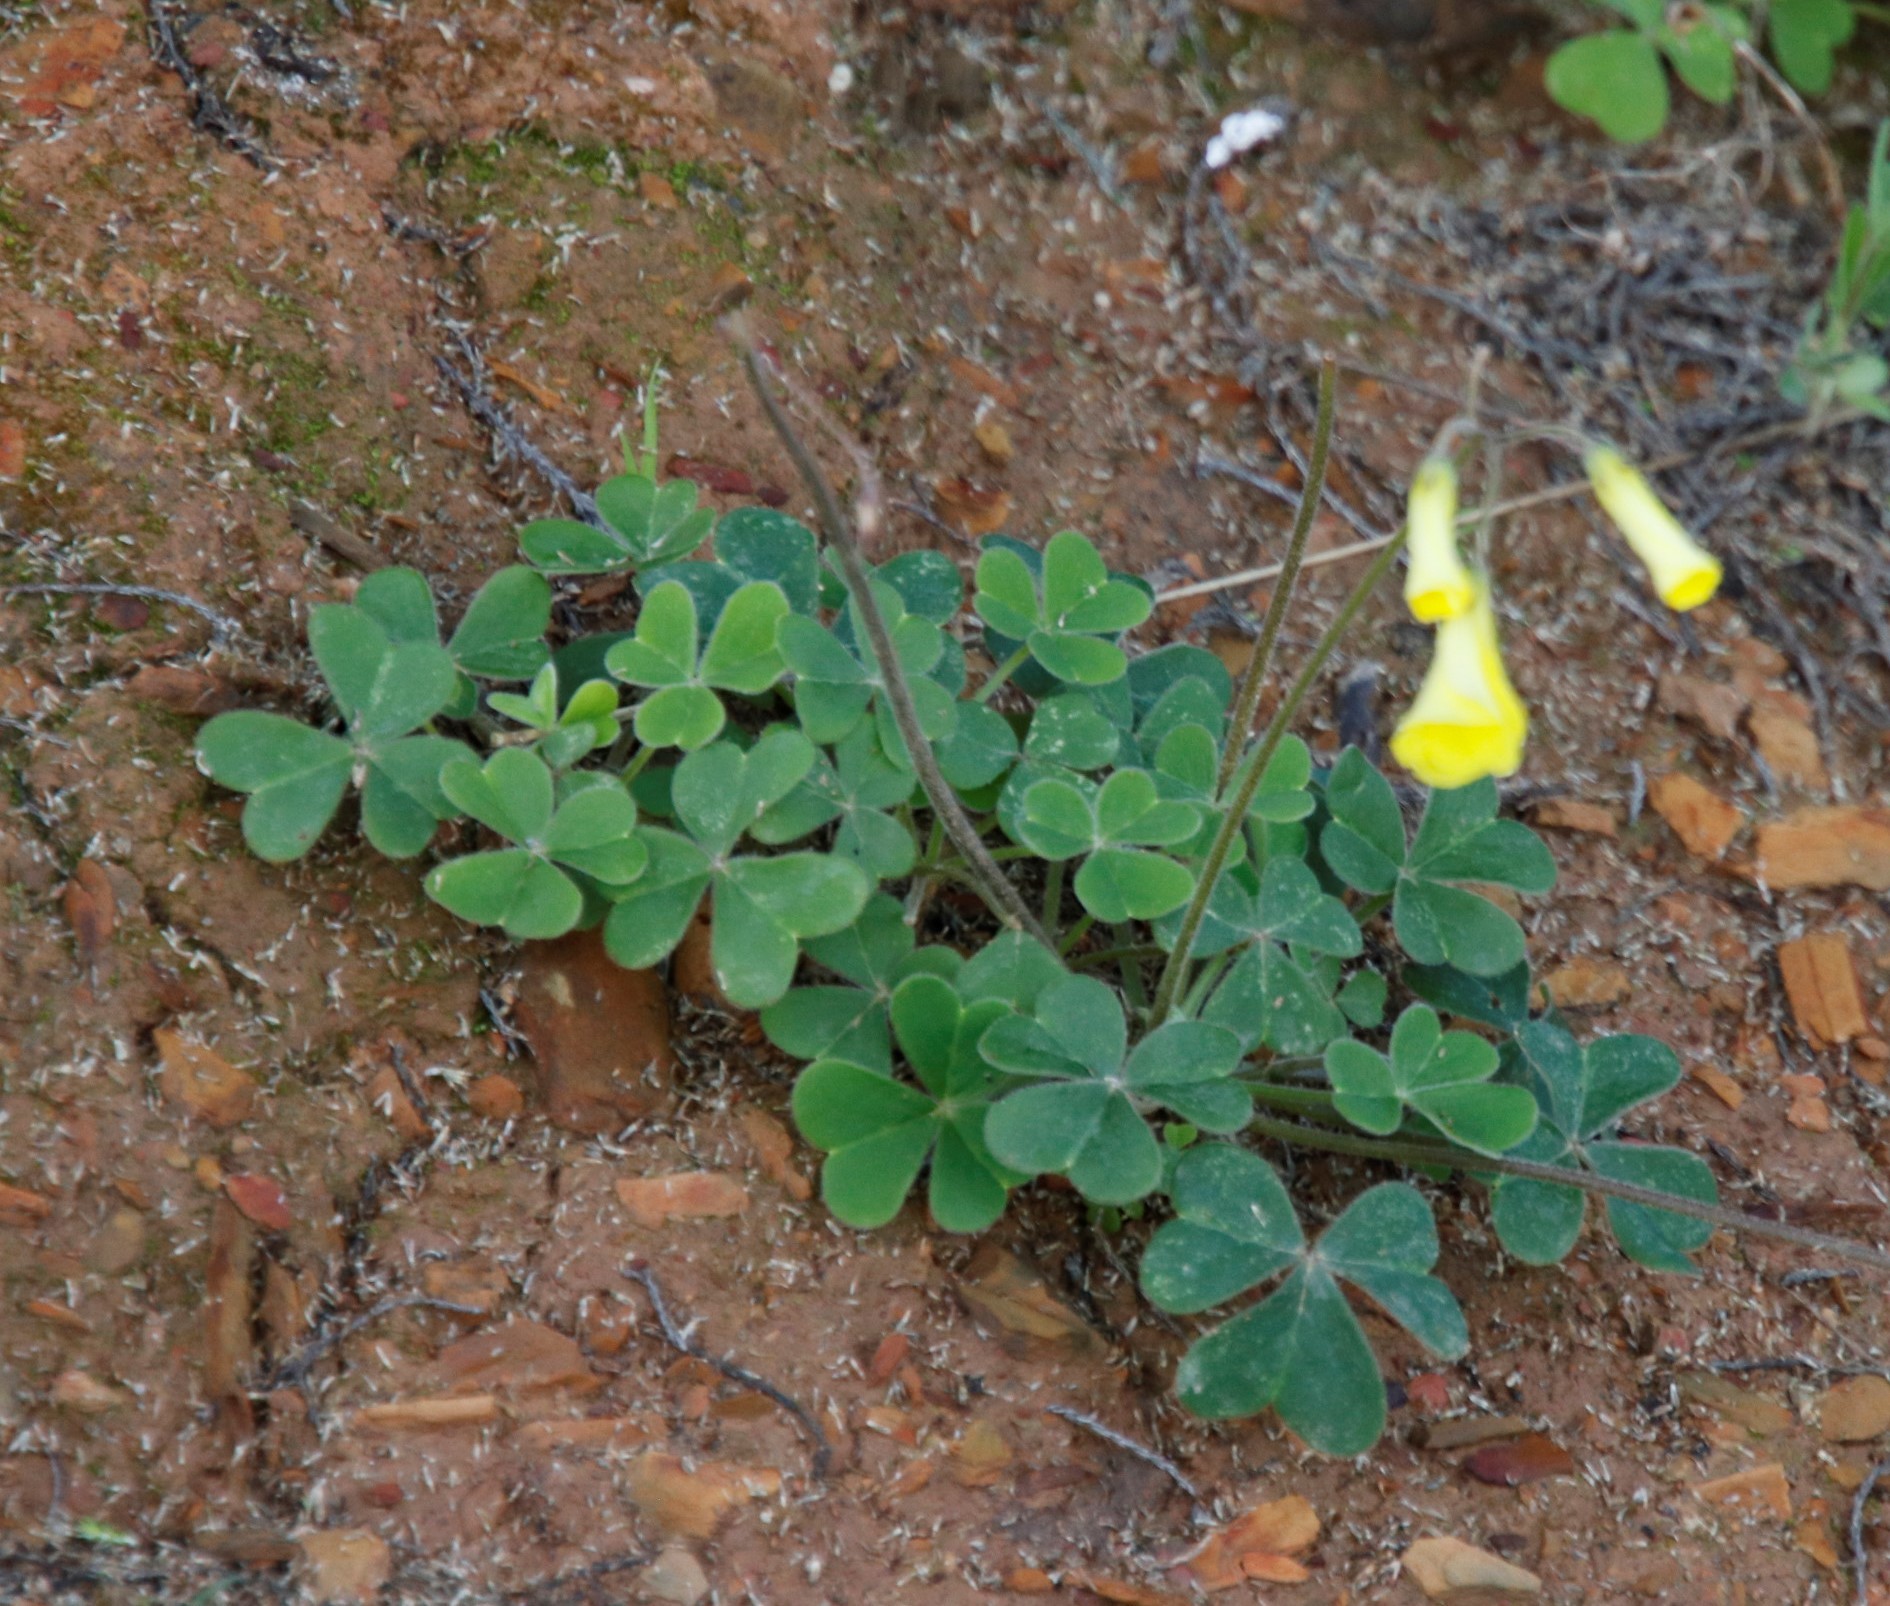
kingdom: Plantae
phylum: Tracheophyta
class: Magnoliopsida
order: Oxalidales
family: Oxalidaceae
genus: Oxalis
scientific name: Oxalis compressa
